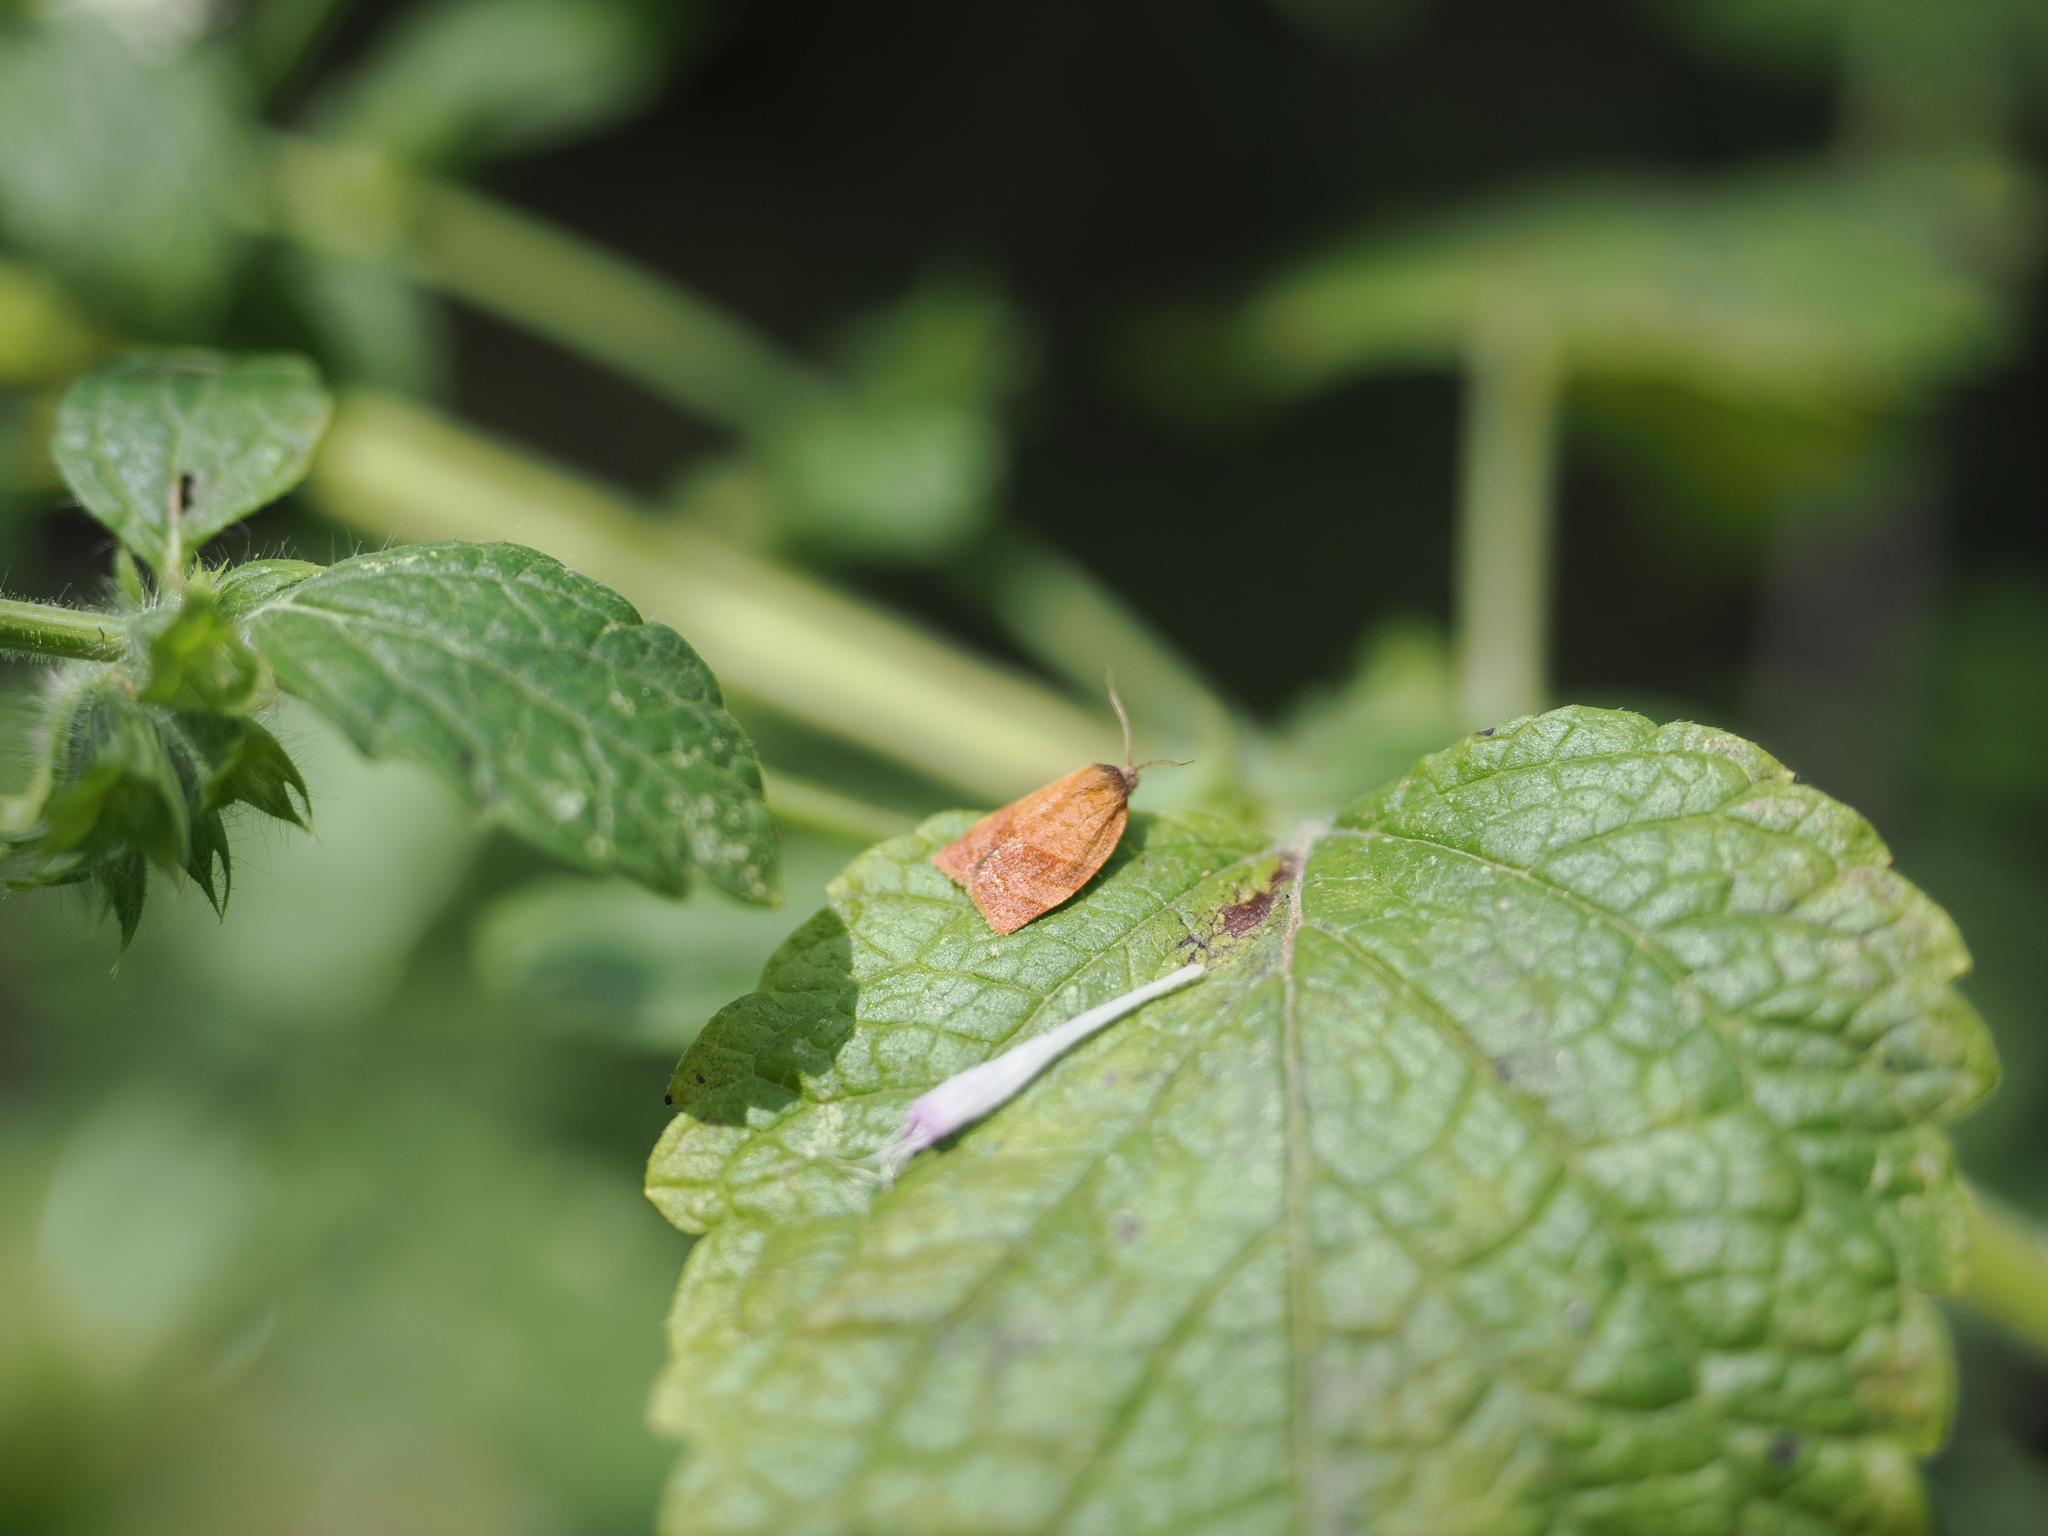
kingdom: Animalia
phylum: Arthropoda
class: Insecta
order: Lepidoptera
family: Tortricidae
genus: Cacoecimorpha
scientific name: Cacoecimorpha pronubana
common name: Carnation tortrix
